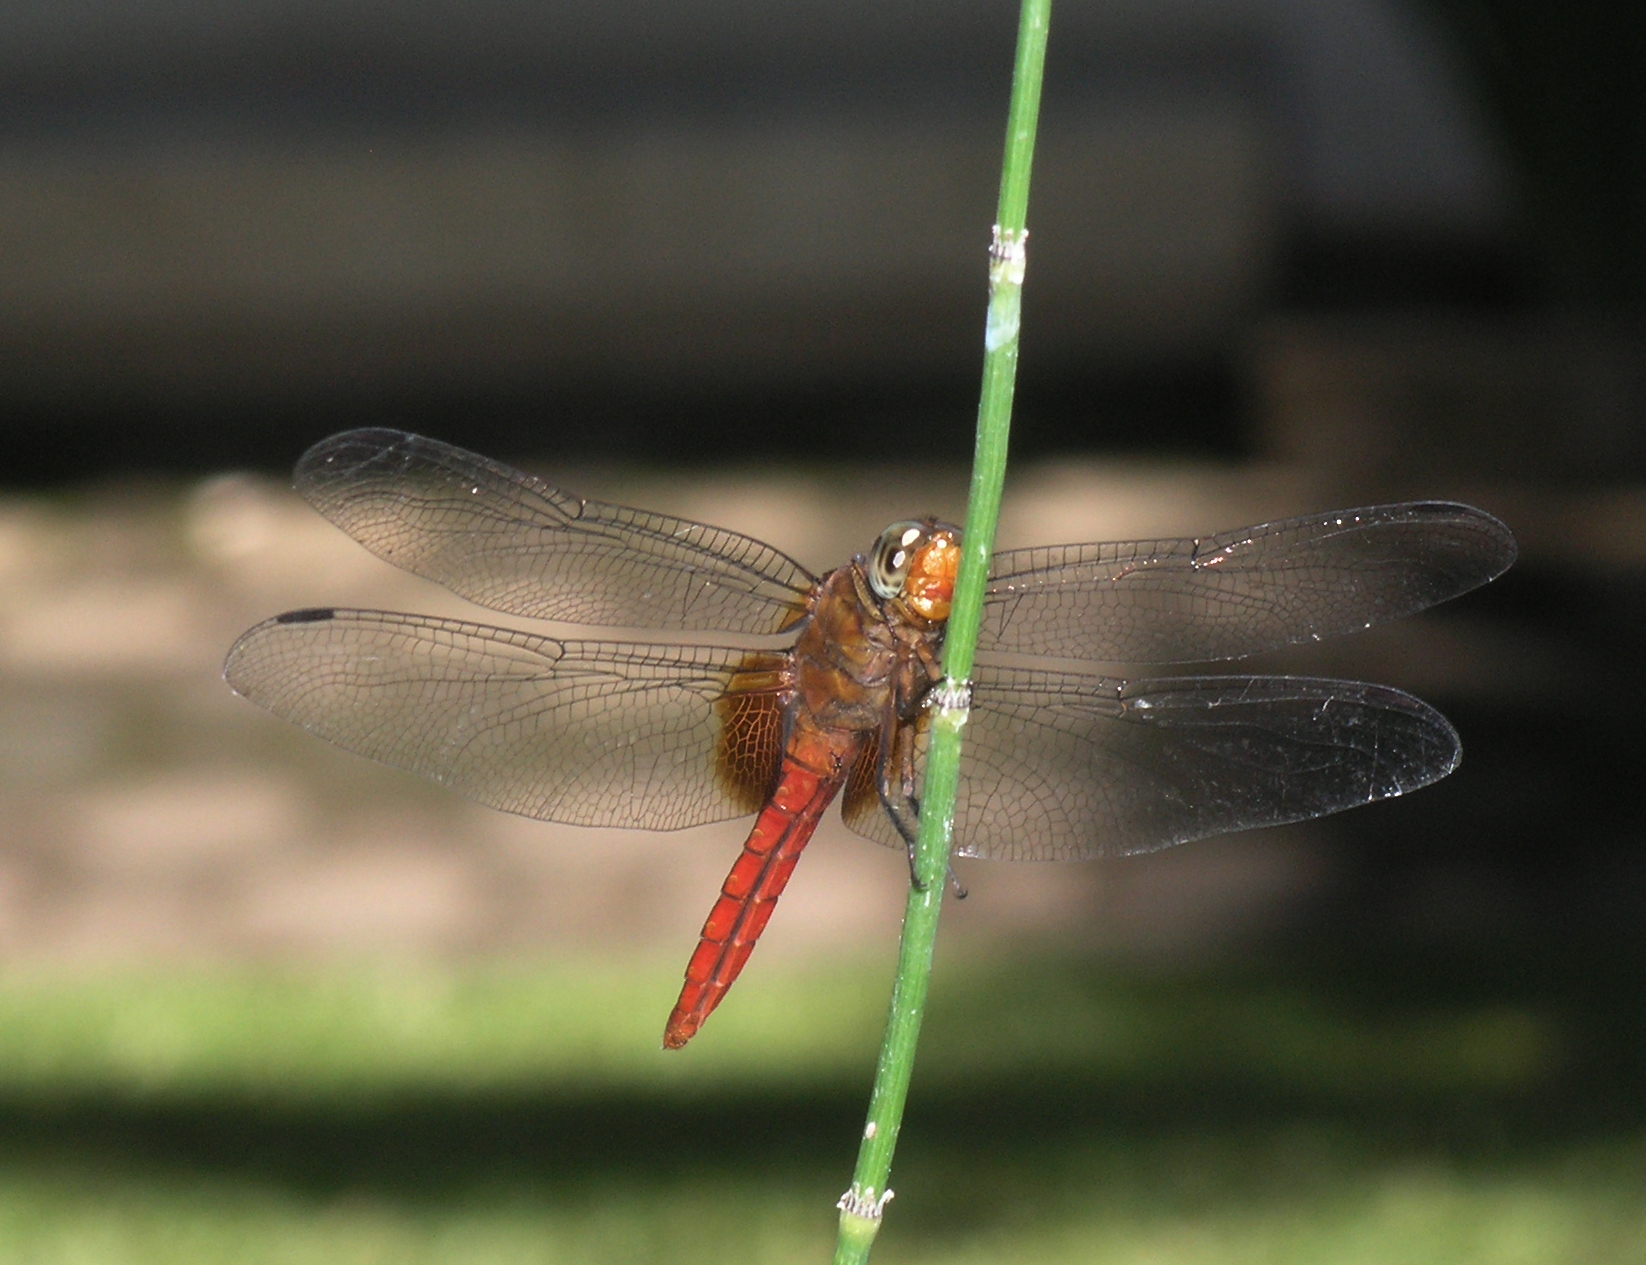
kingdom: Animalia
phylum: Arthropoda
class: Insecta
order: Odonata
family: Libellulidae
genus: Orthetrum
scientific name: Orthetrum testaceum
